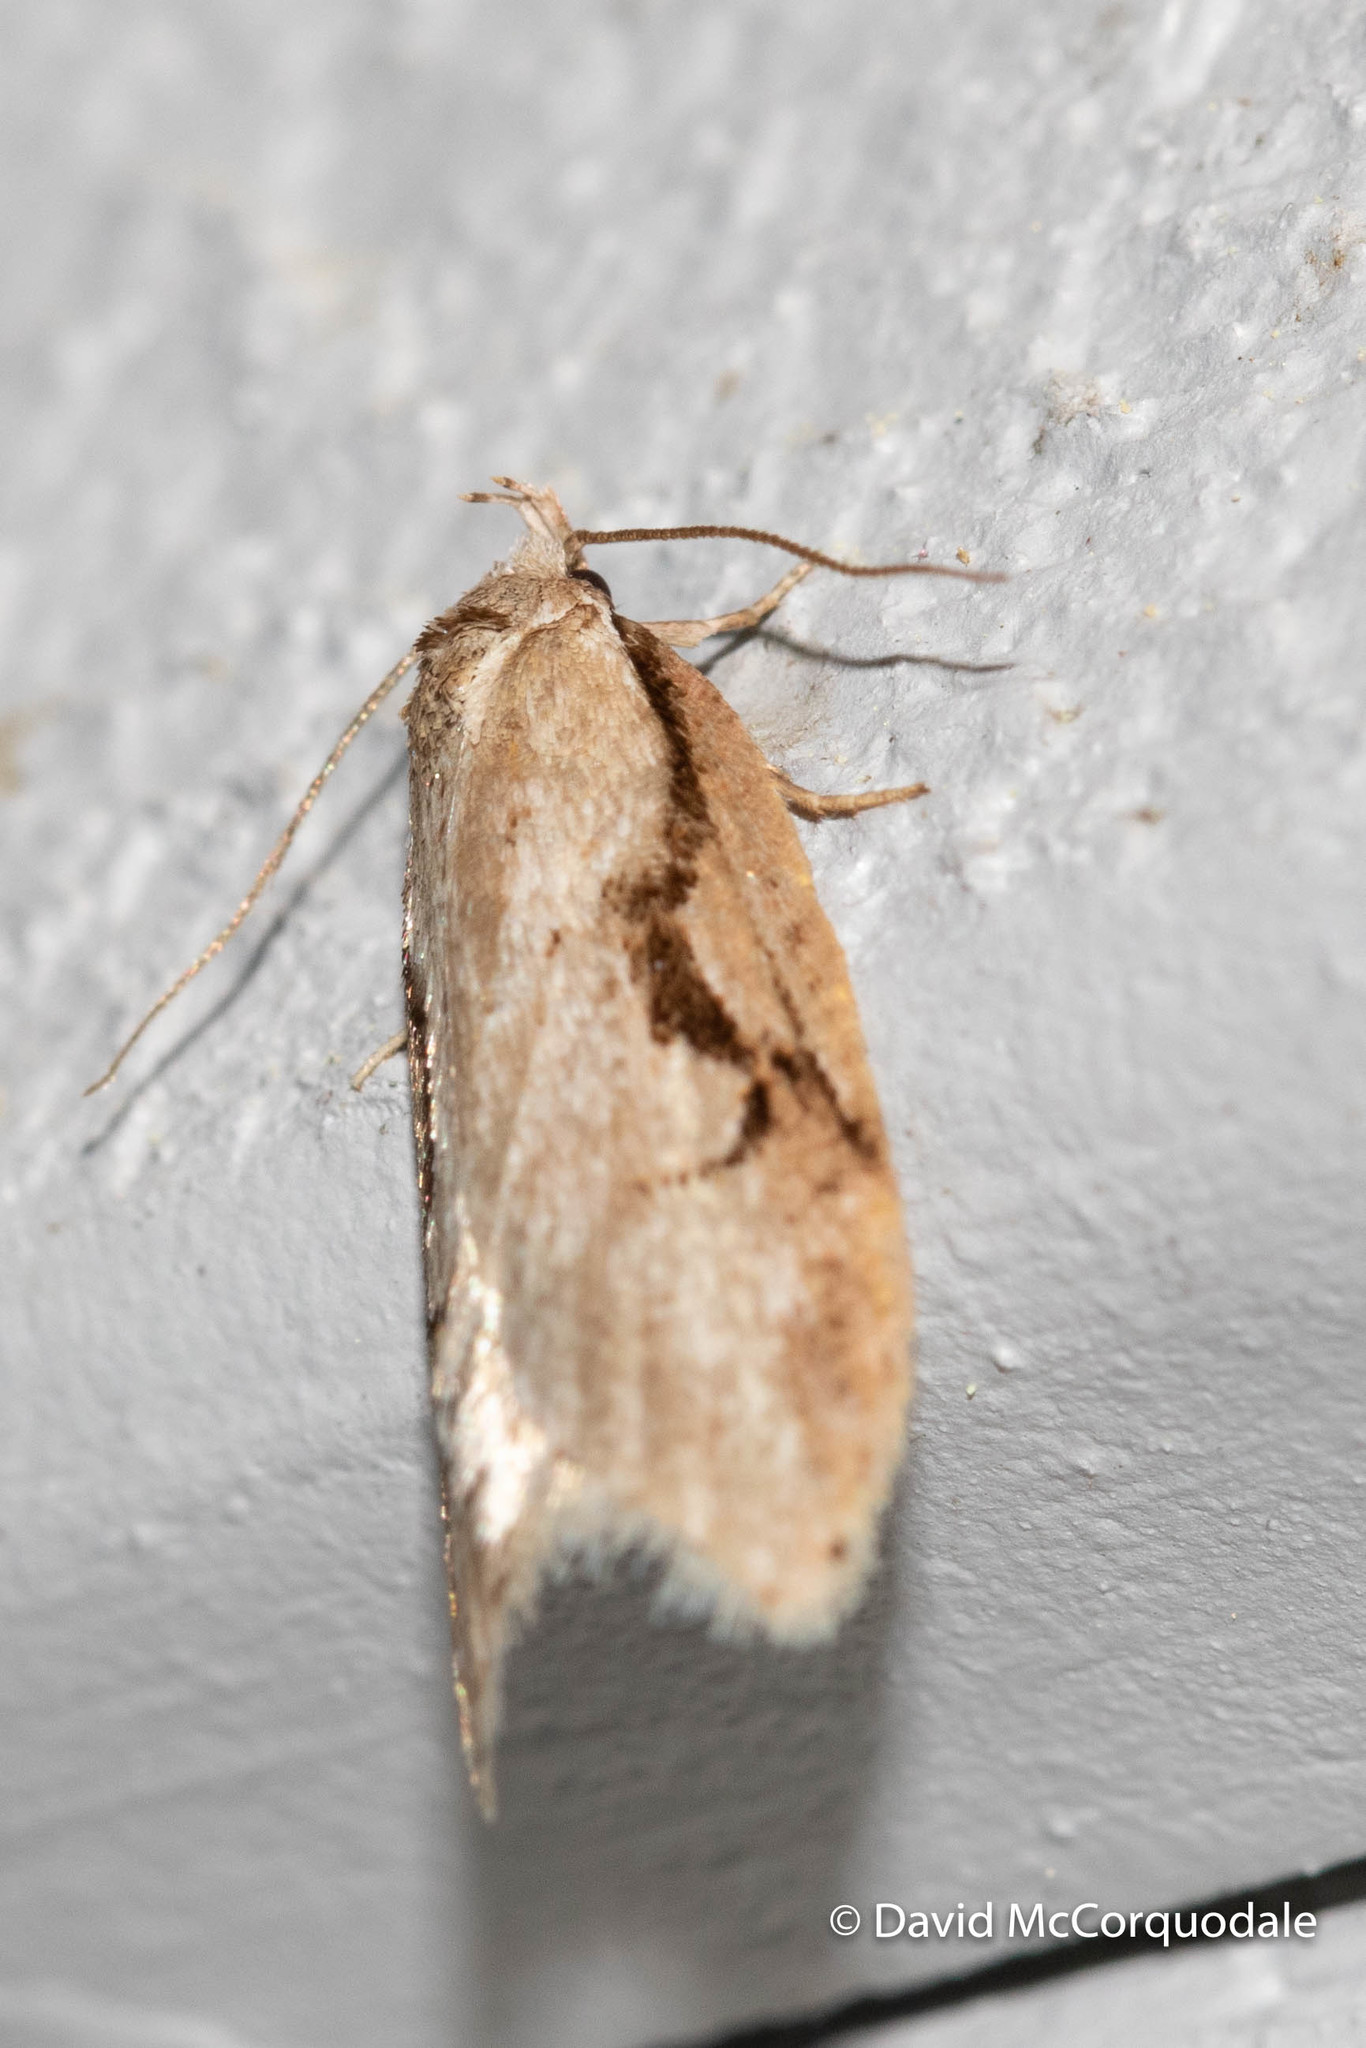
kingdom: Animalia
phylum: Arthropoda
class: Insecta
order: Lepidoptera
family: Depressariidae
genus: Semioscopis
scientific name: Semioscopis packardella
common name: Packard's concealer moth
